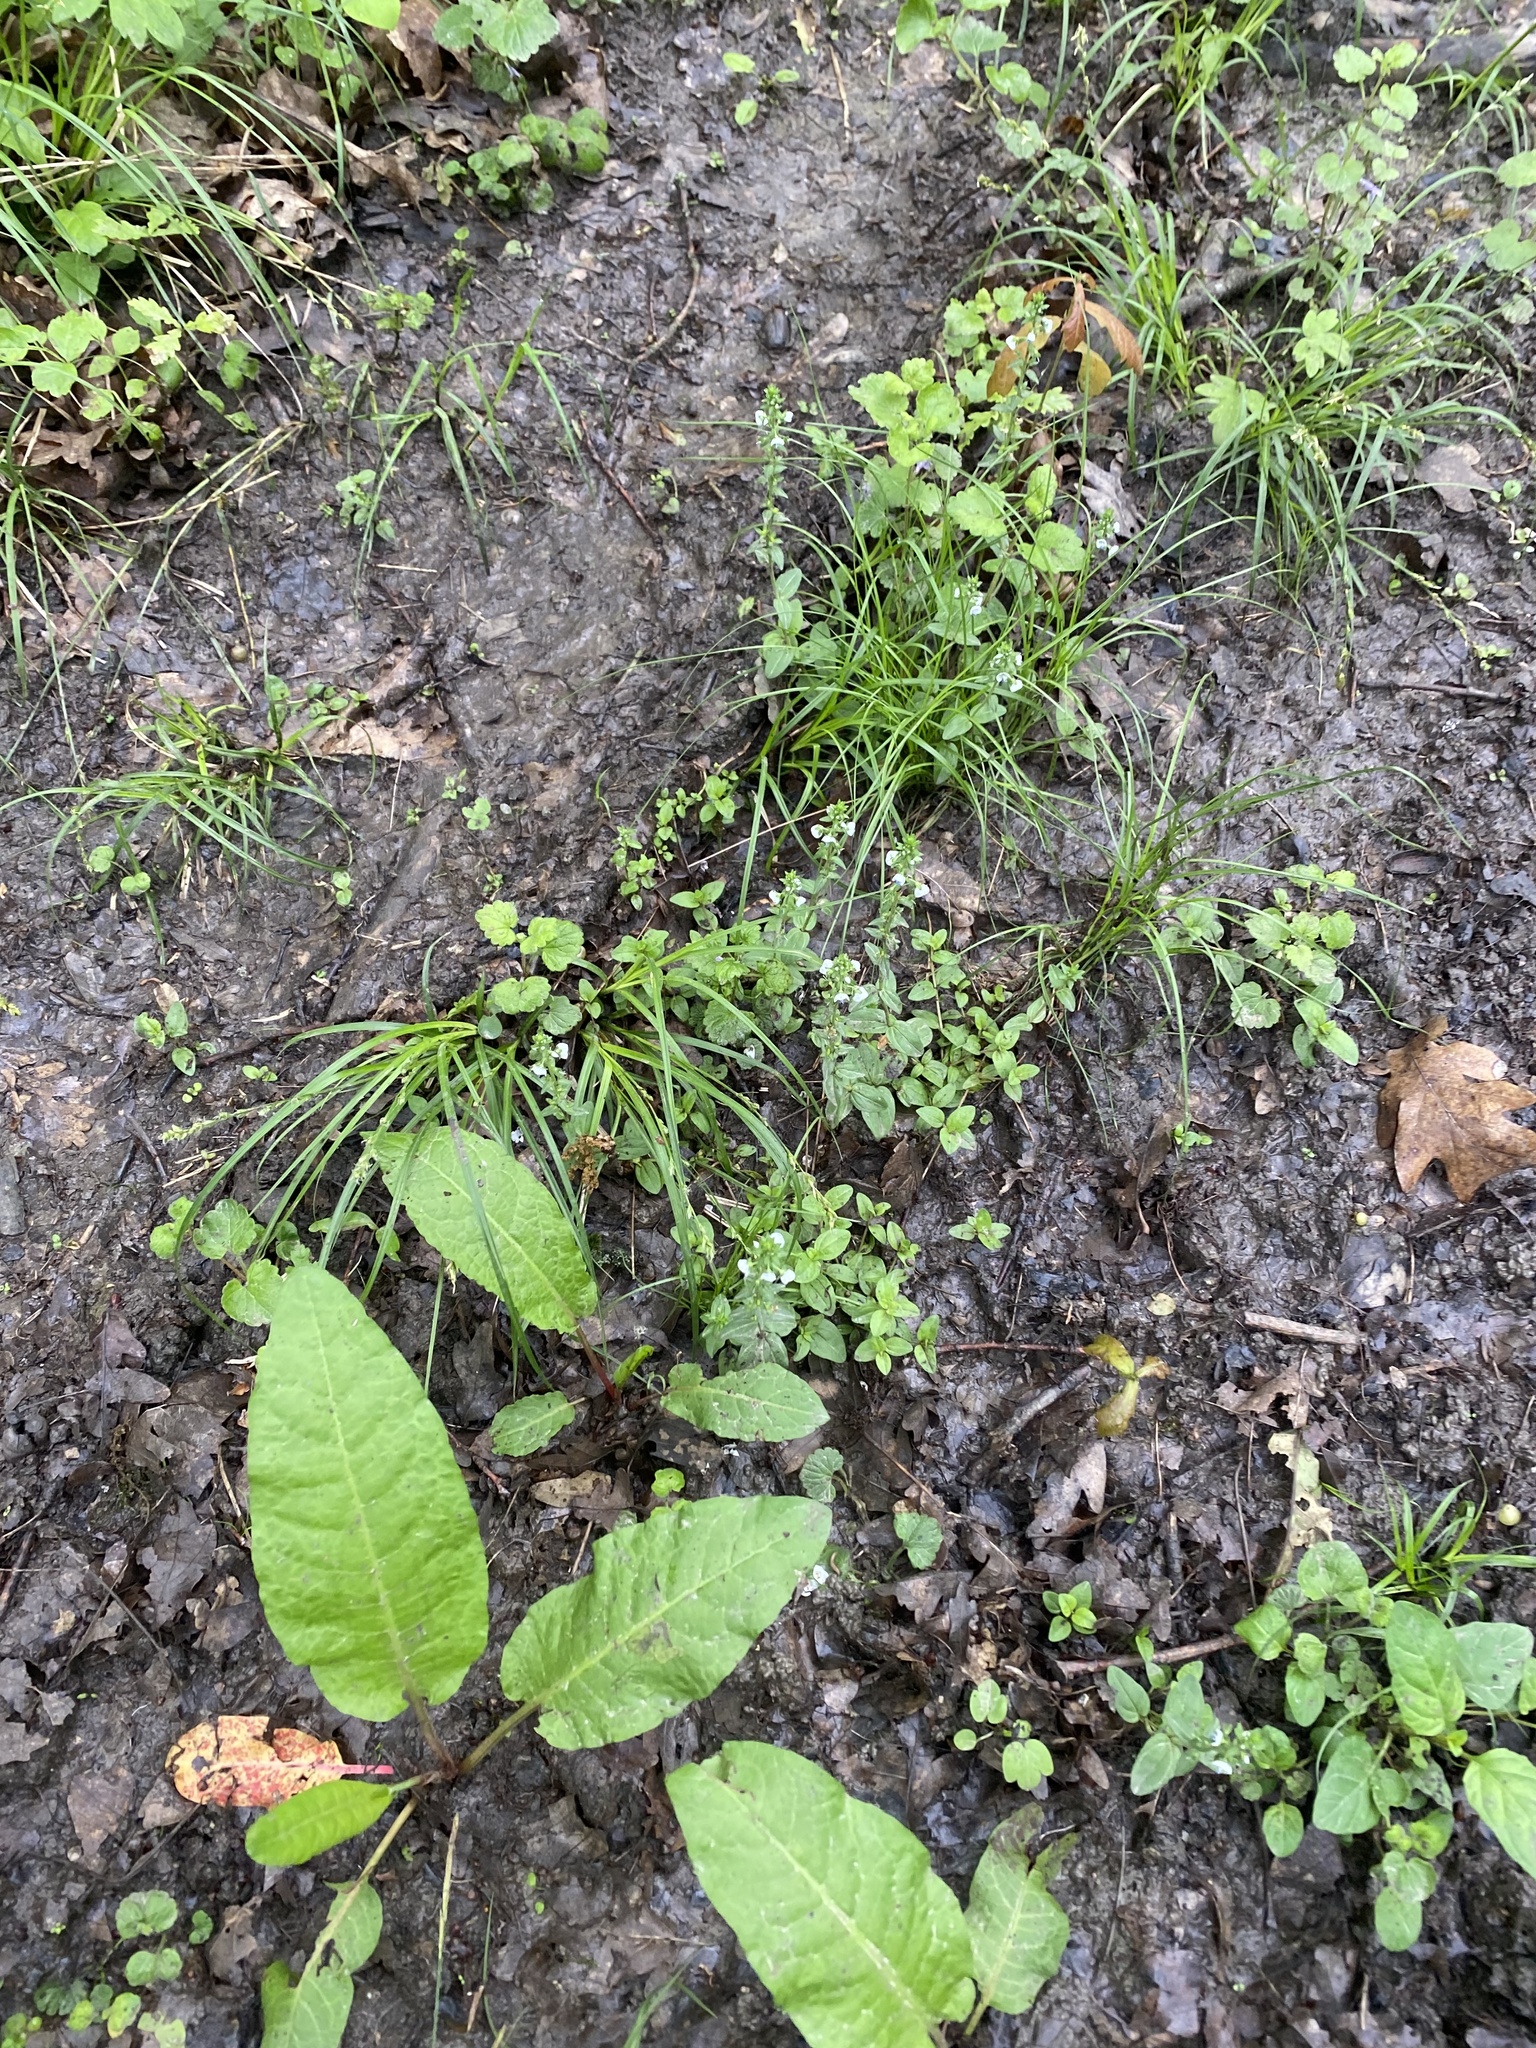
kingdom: Plantae
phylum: Tracheophyta
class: Magnoliopsida
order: Lamiales
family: Plantaginaceae
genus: Veronica
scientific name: Veronica serpyllifolia
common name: Thyme-leaved speedwell
